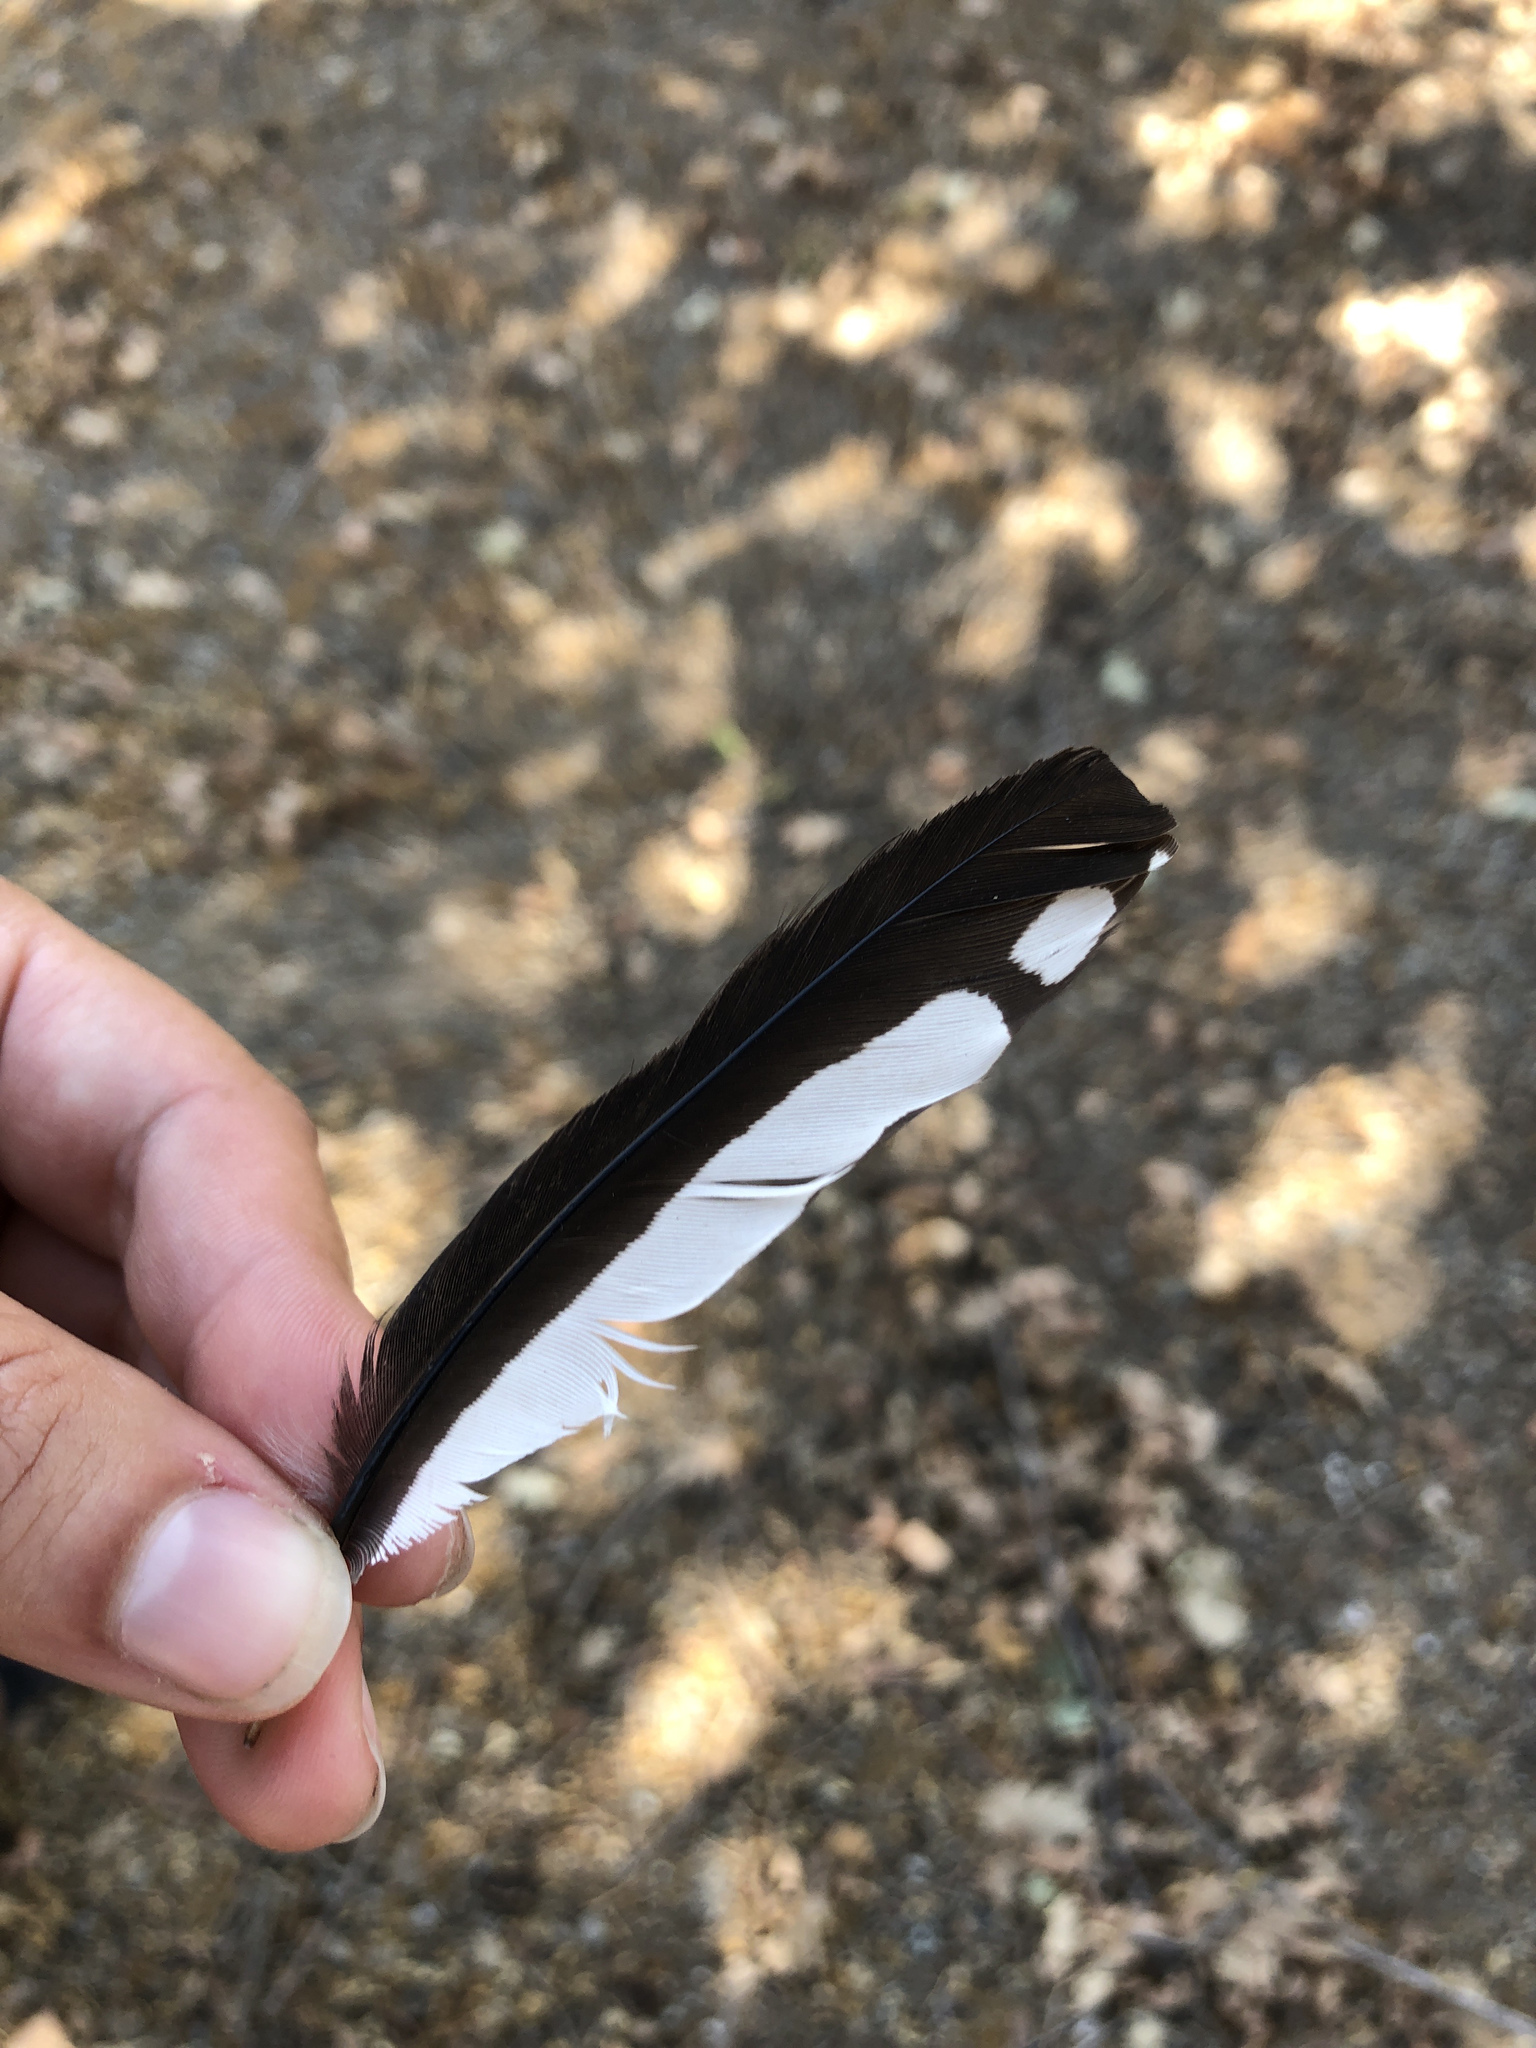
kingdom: Animalia
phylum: Chordata
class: Aves
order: Piciformes
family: Picidae
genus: Melanerpes
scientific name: Melanerpes formicivorus
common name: Acorn woodpecker
